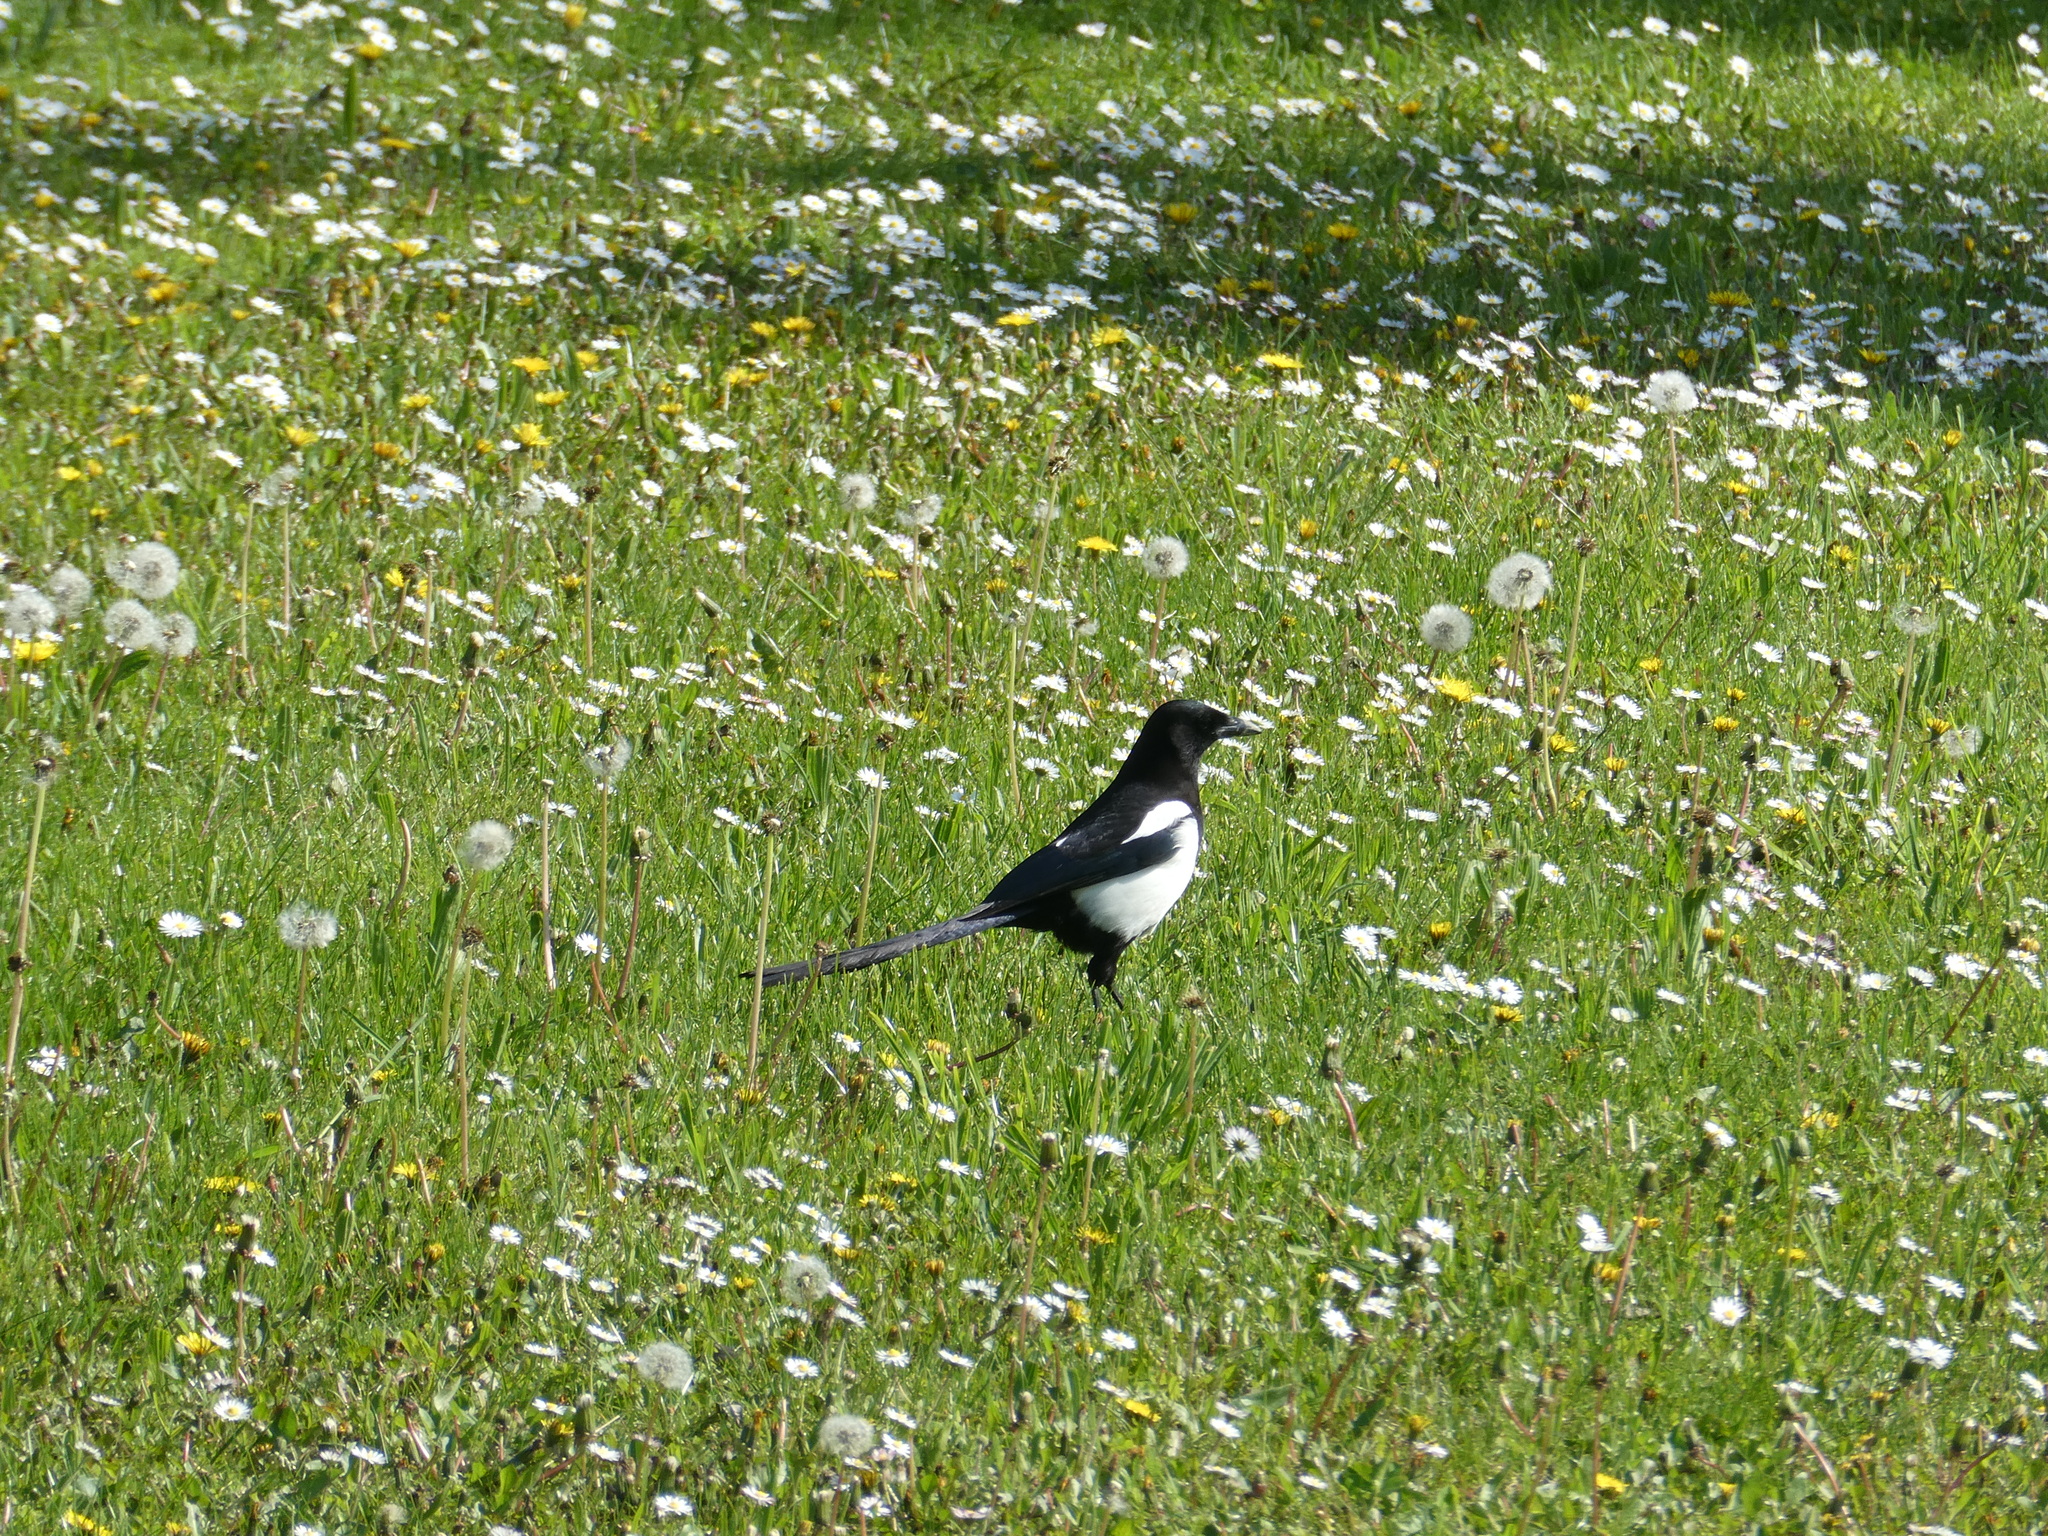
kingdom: Animalia
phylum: Chordata
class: Aves
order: Passeriformes
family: Corvidae
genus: Pica
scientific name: Pica pica
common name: Eurasian magpie
